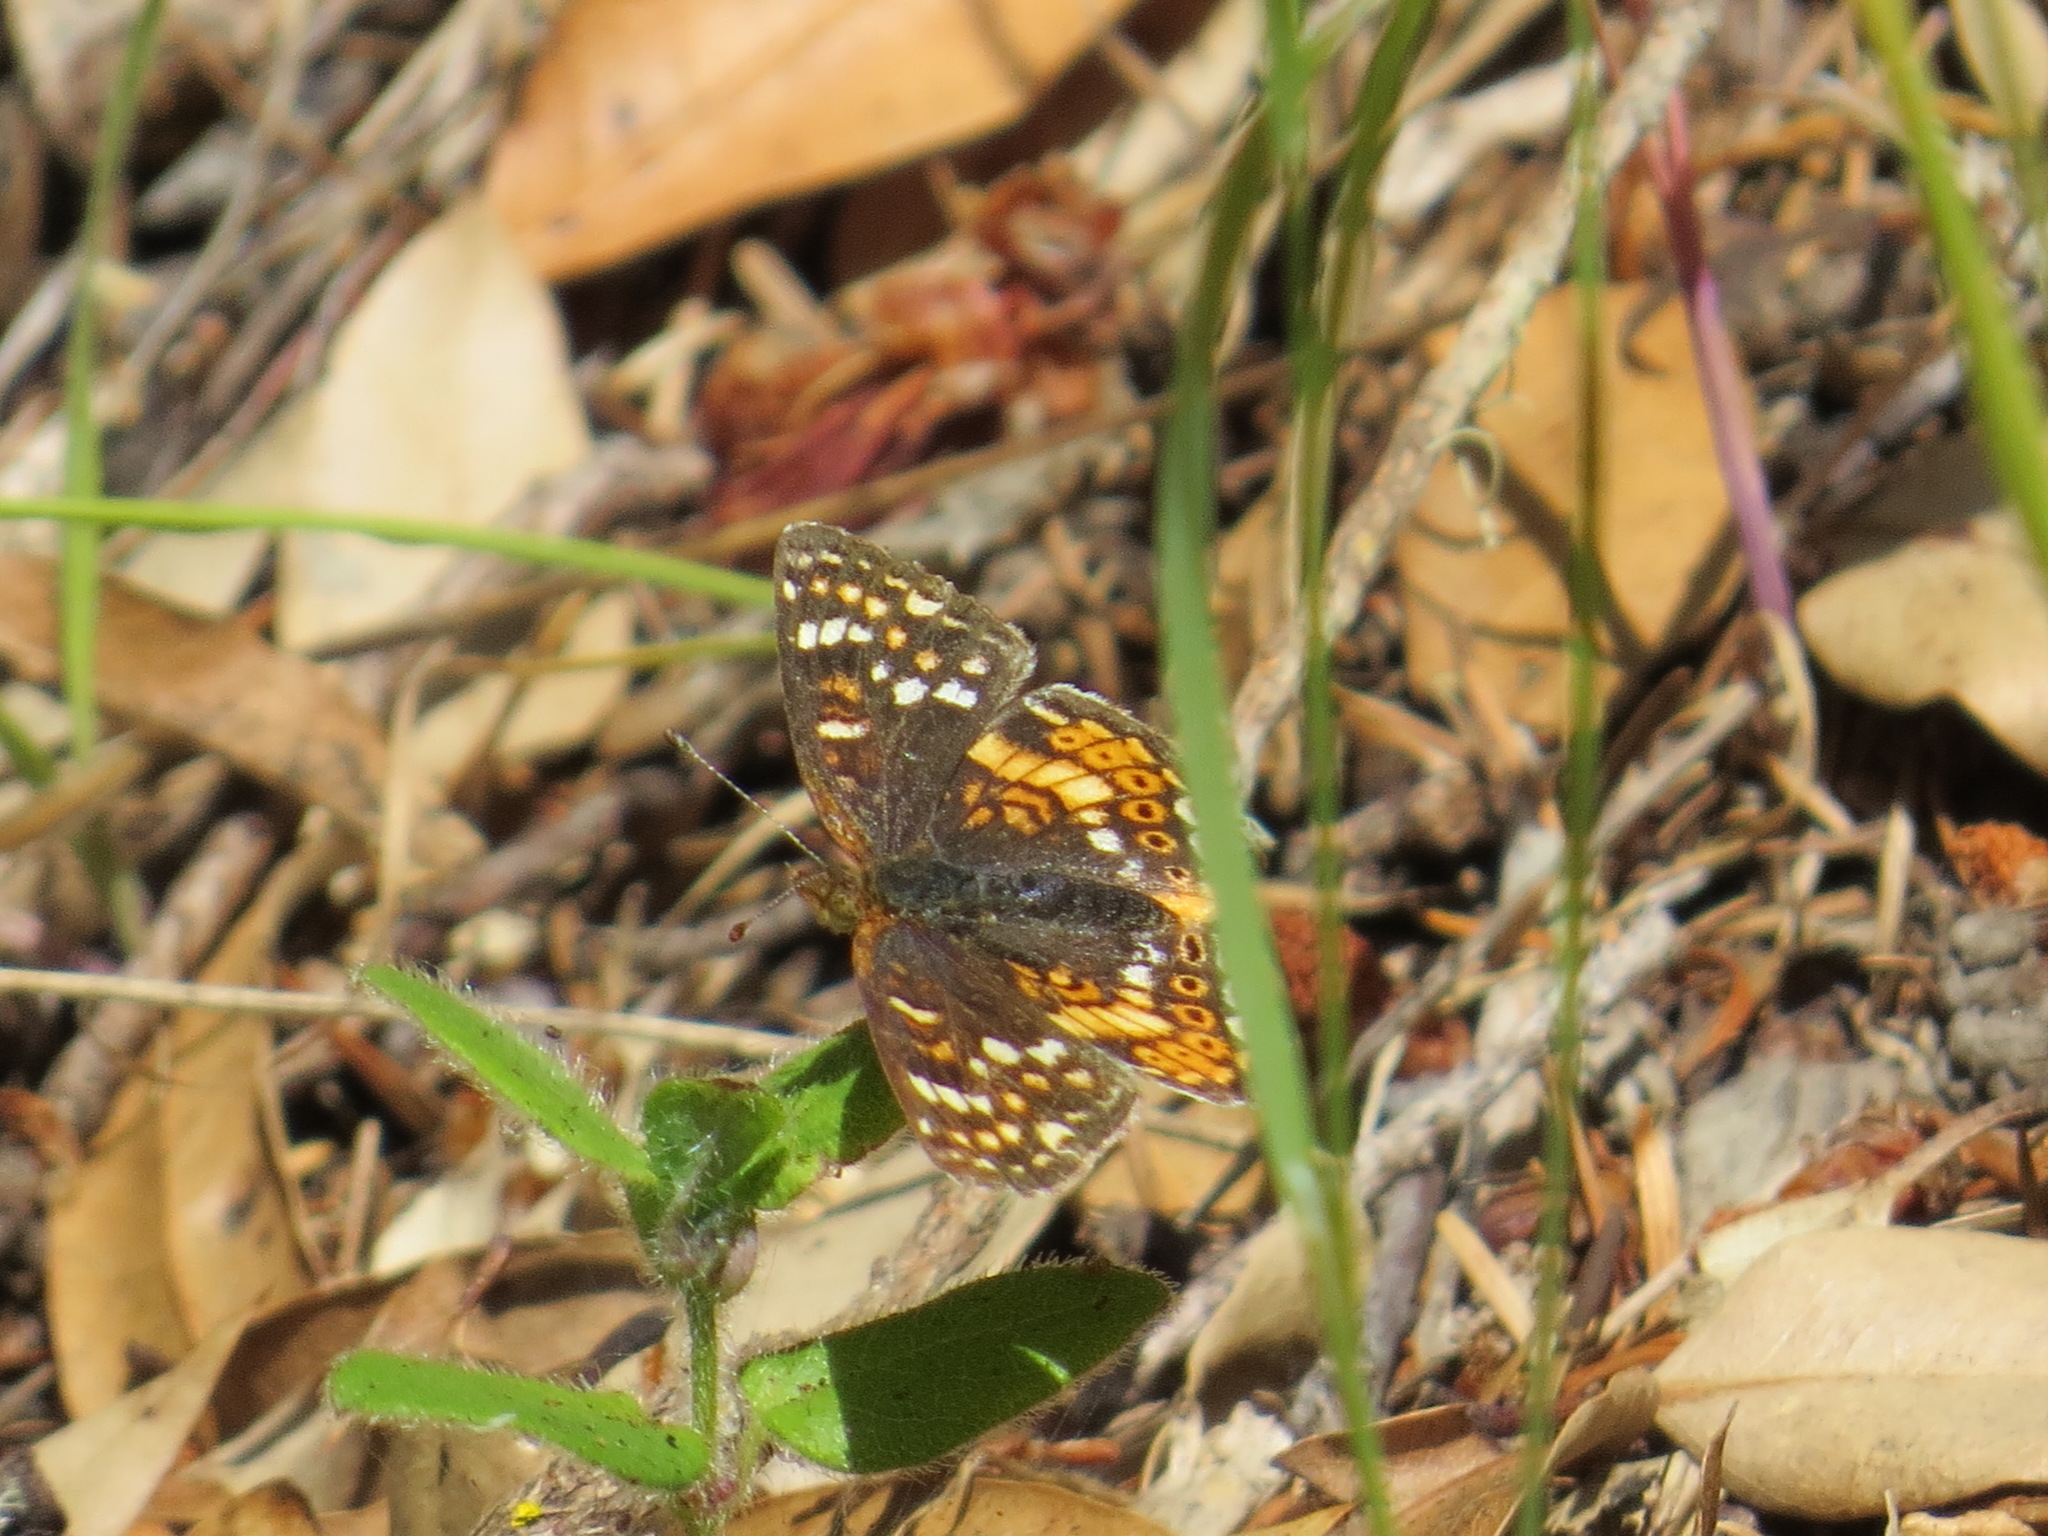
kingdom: Animalia
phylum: Arthropoda
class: Insecta
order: Lepidoptera
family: Nymphalidae
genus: Phyciodes
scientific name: Phyciodes tharos
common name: Pearl crescent
